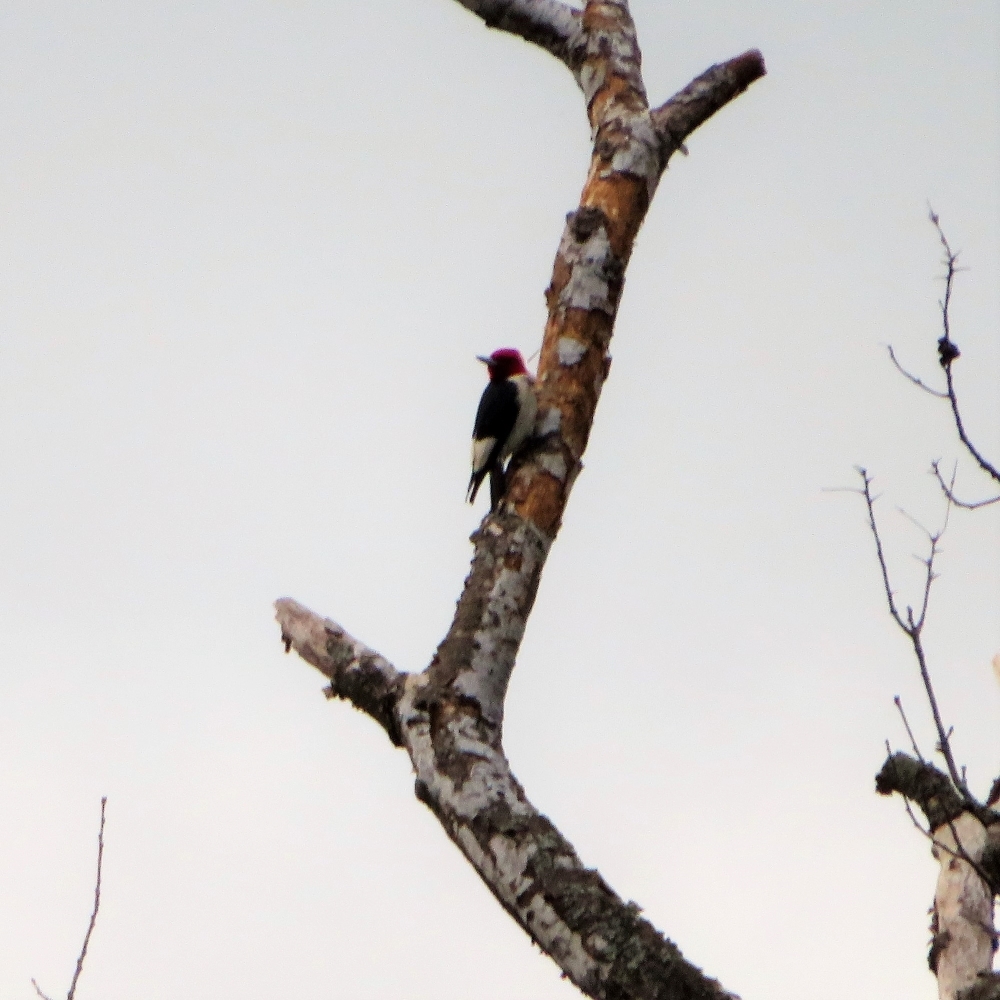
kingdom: Animalia
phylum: Chordata
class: Aves
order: Piciformes
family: Picidae
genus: Melanerpes
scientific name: Melanerpes erythrocephalus
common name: Red-headed woodpecker
